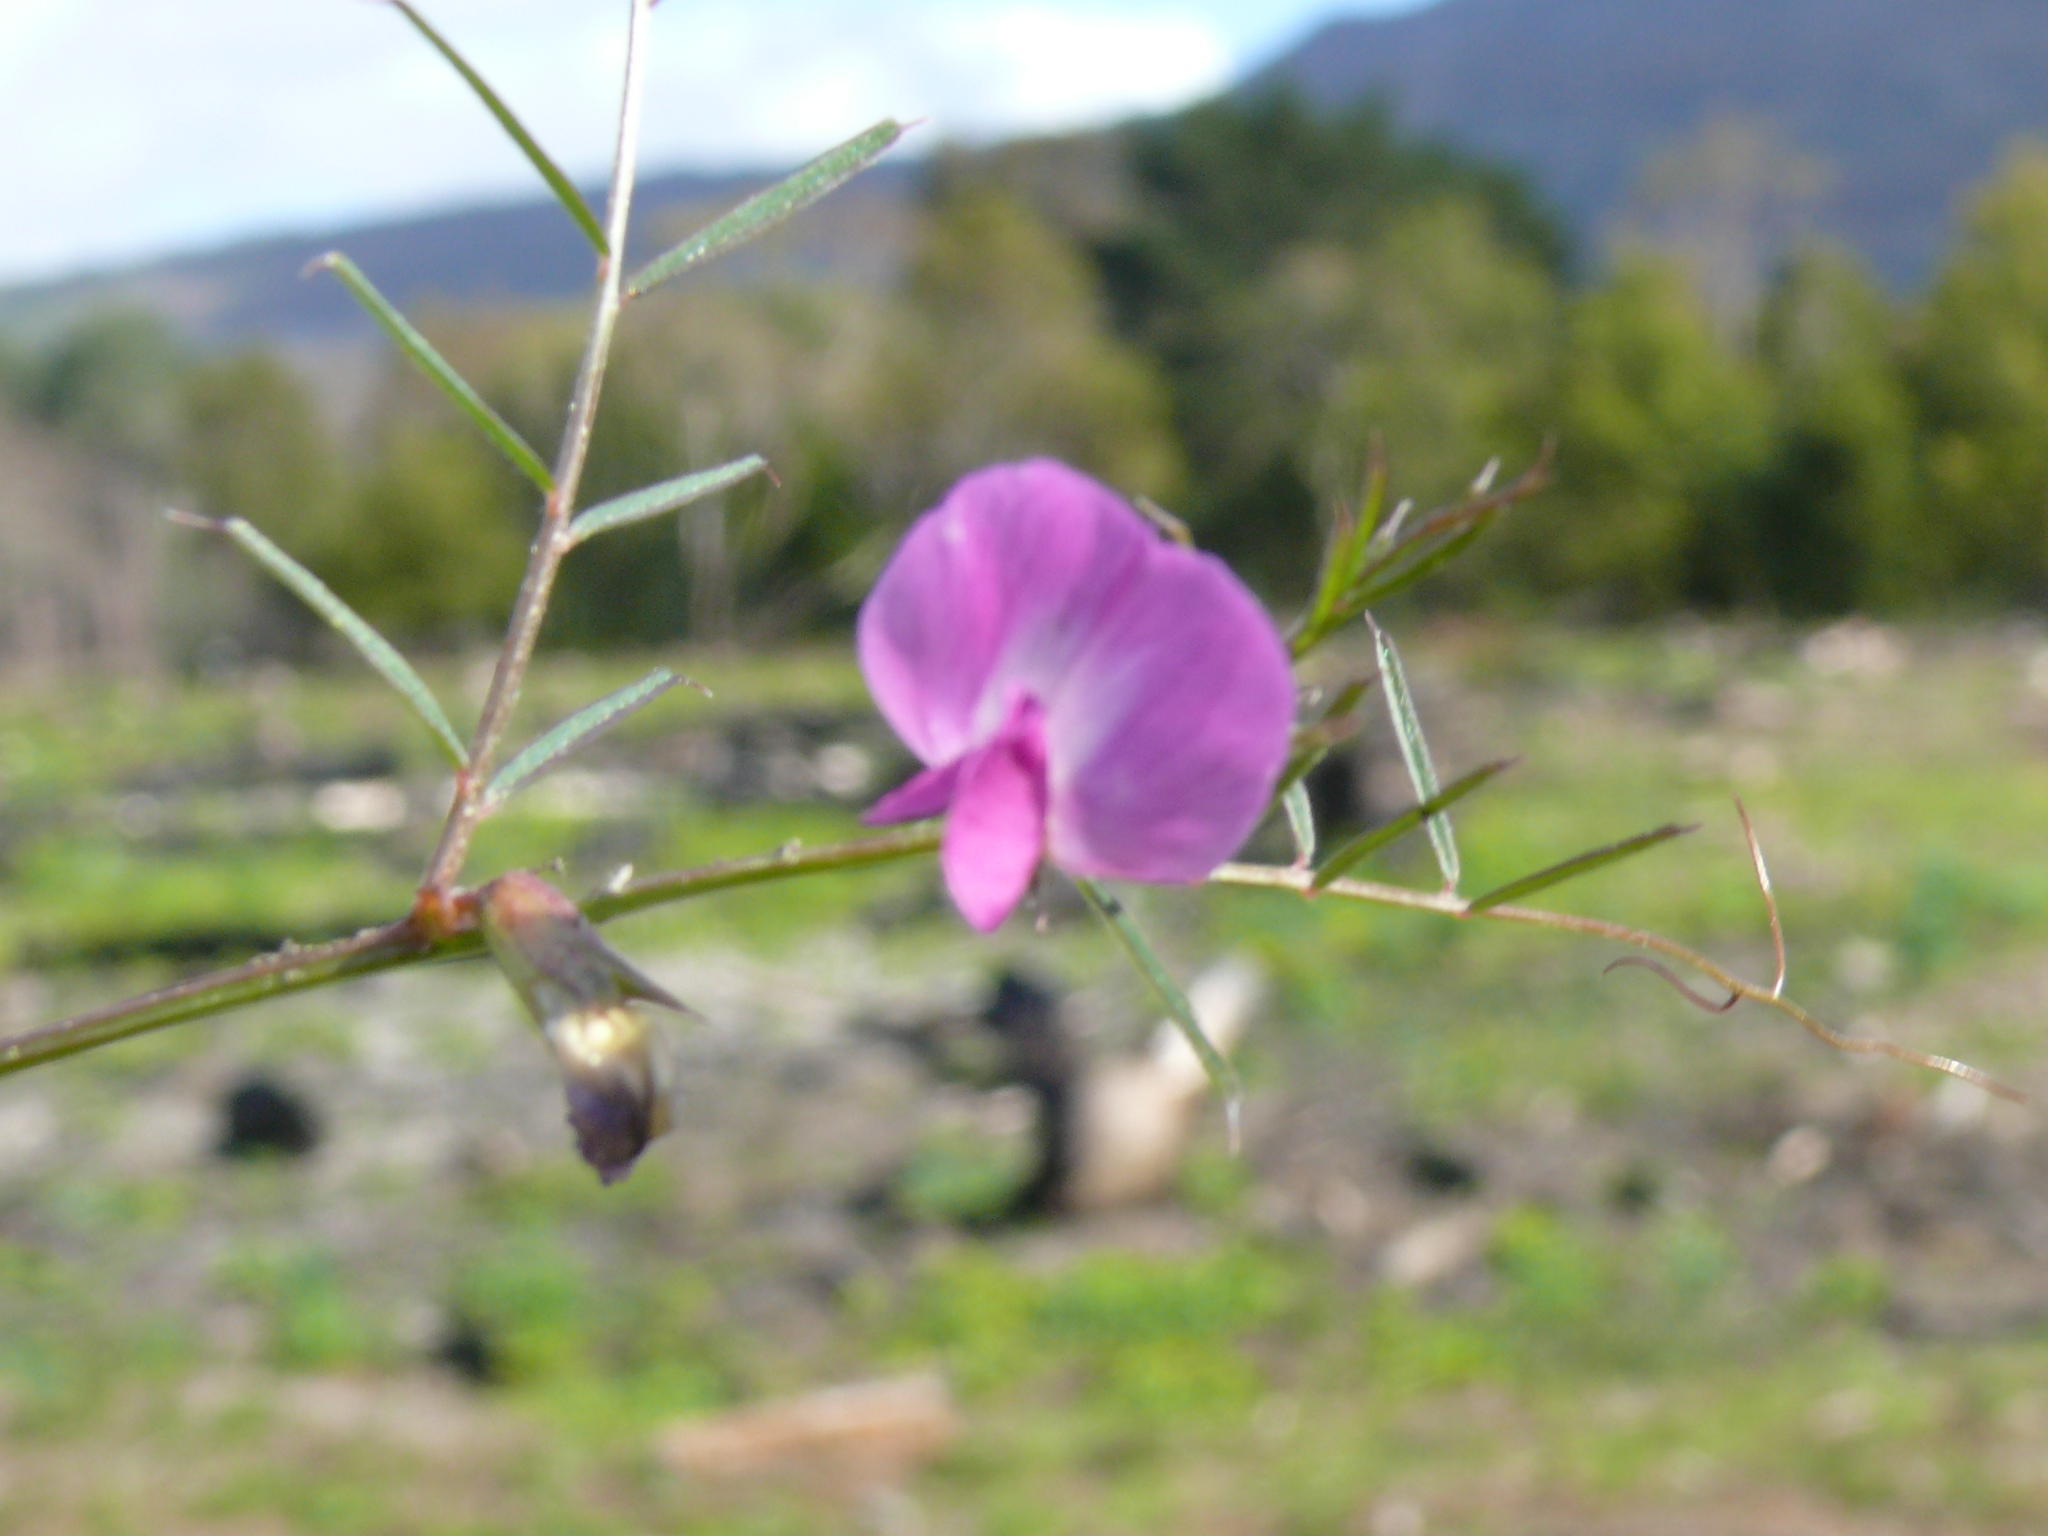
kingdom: Plantae
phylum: Tracheophyta
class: Magnoliopsida
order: Fabales
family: Fabaceae
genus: Vicia
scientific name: Vicia sativa
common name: Garden vetch
